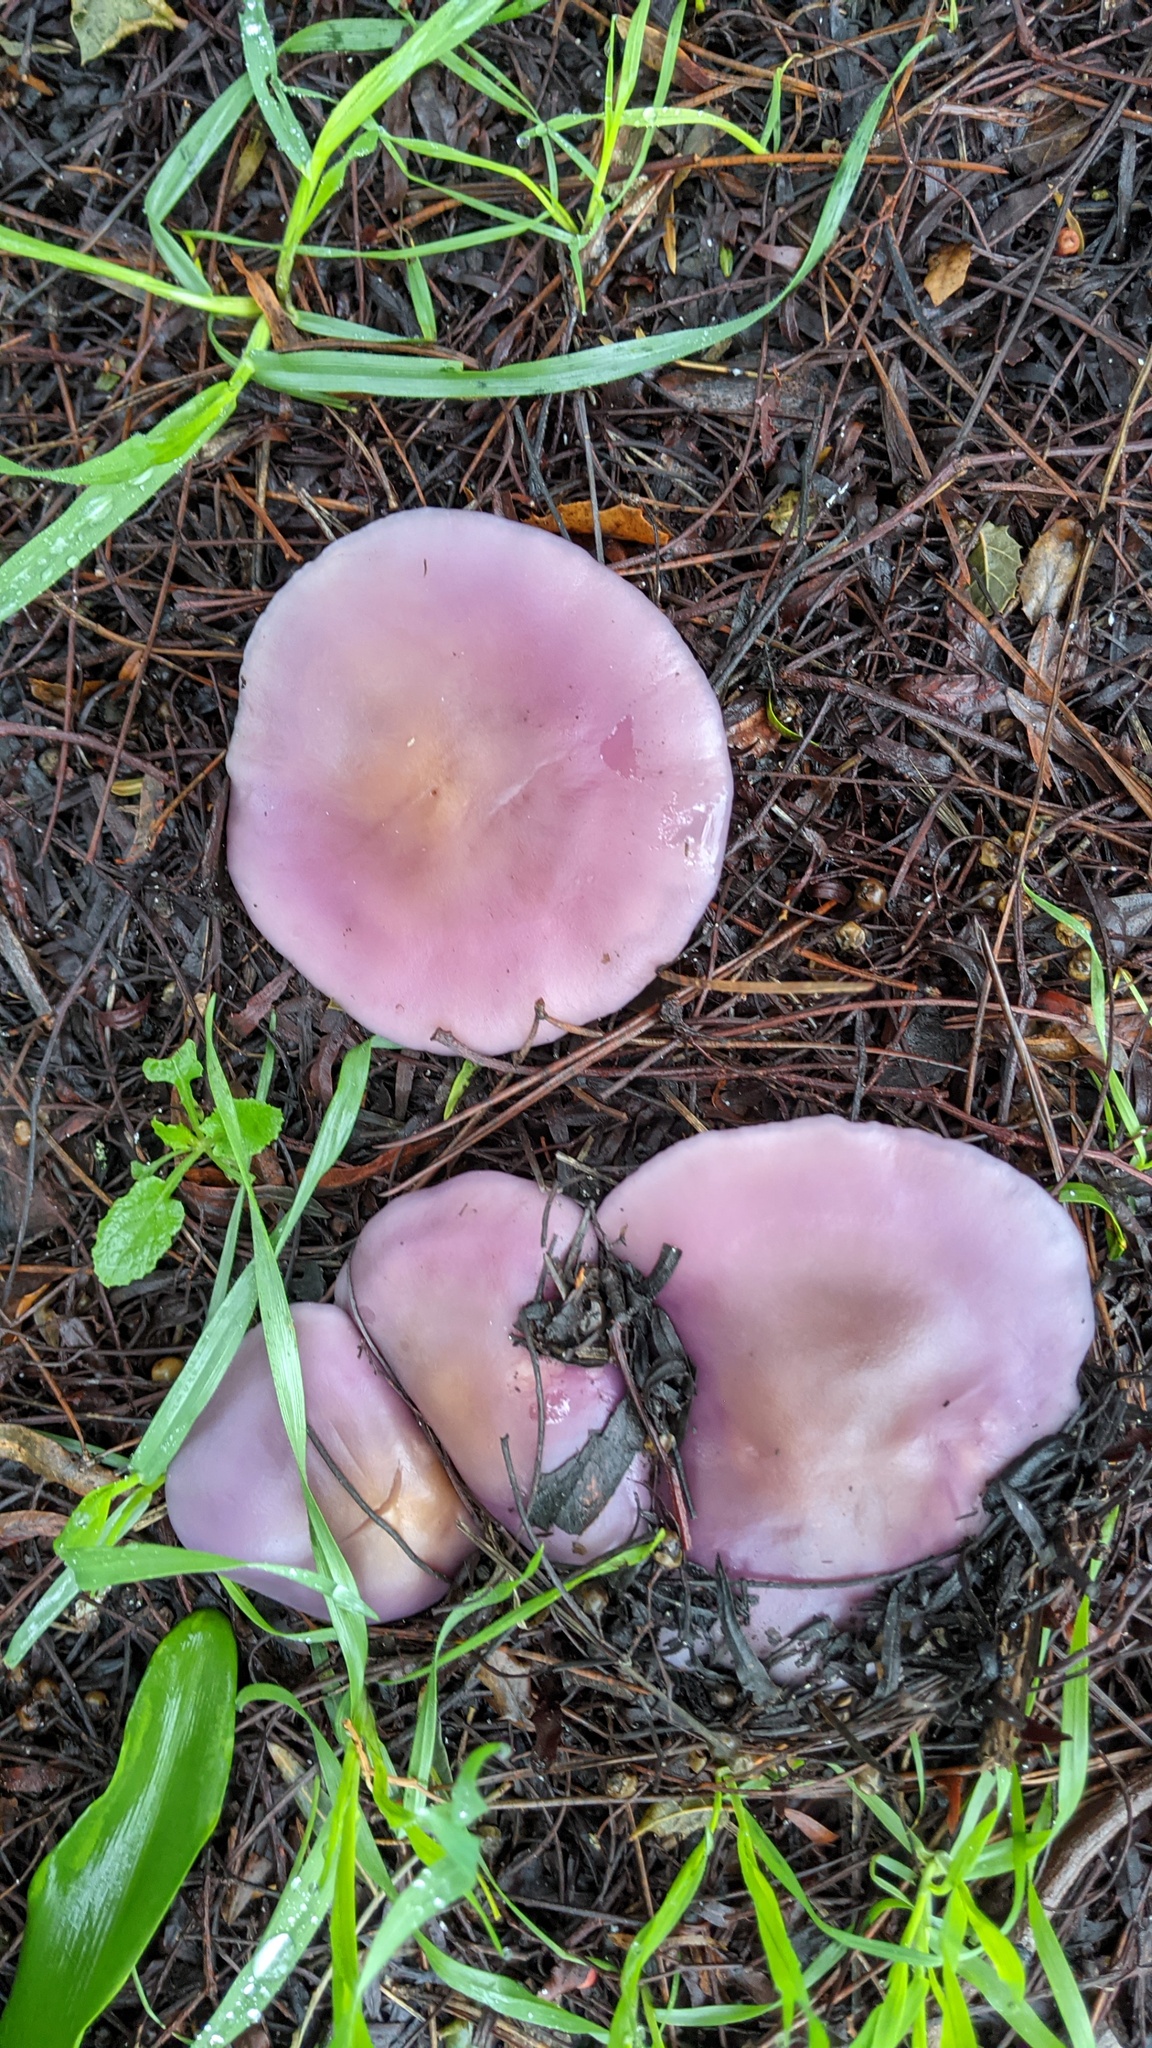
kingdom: Fungi
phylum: Basidiomycota
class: Agaricomycetes
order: Agaricales
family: Tricholomataceae
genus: Collybia
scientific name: Collybia
